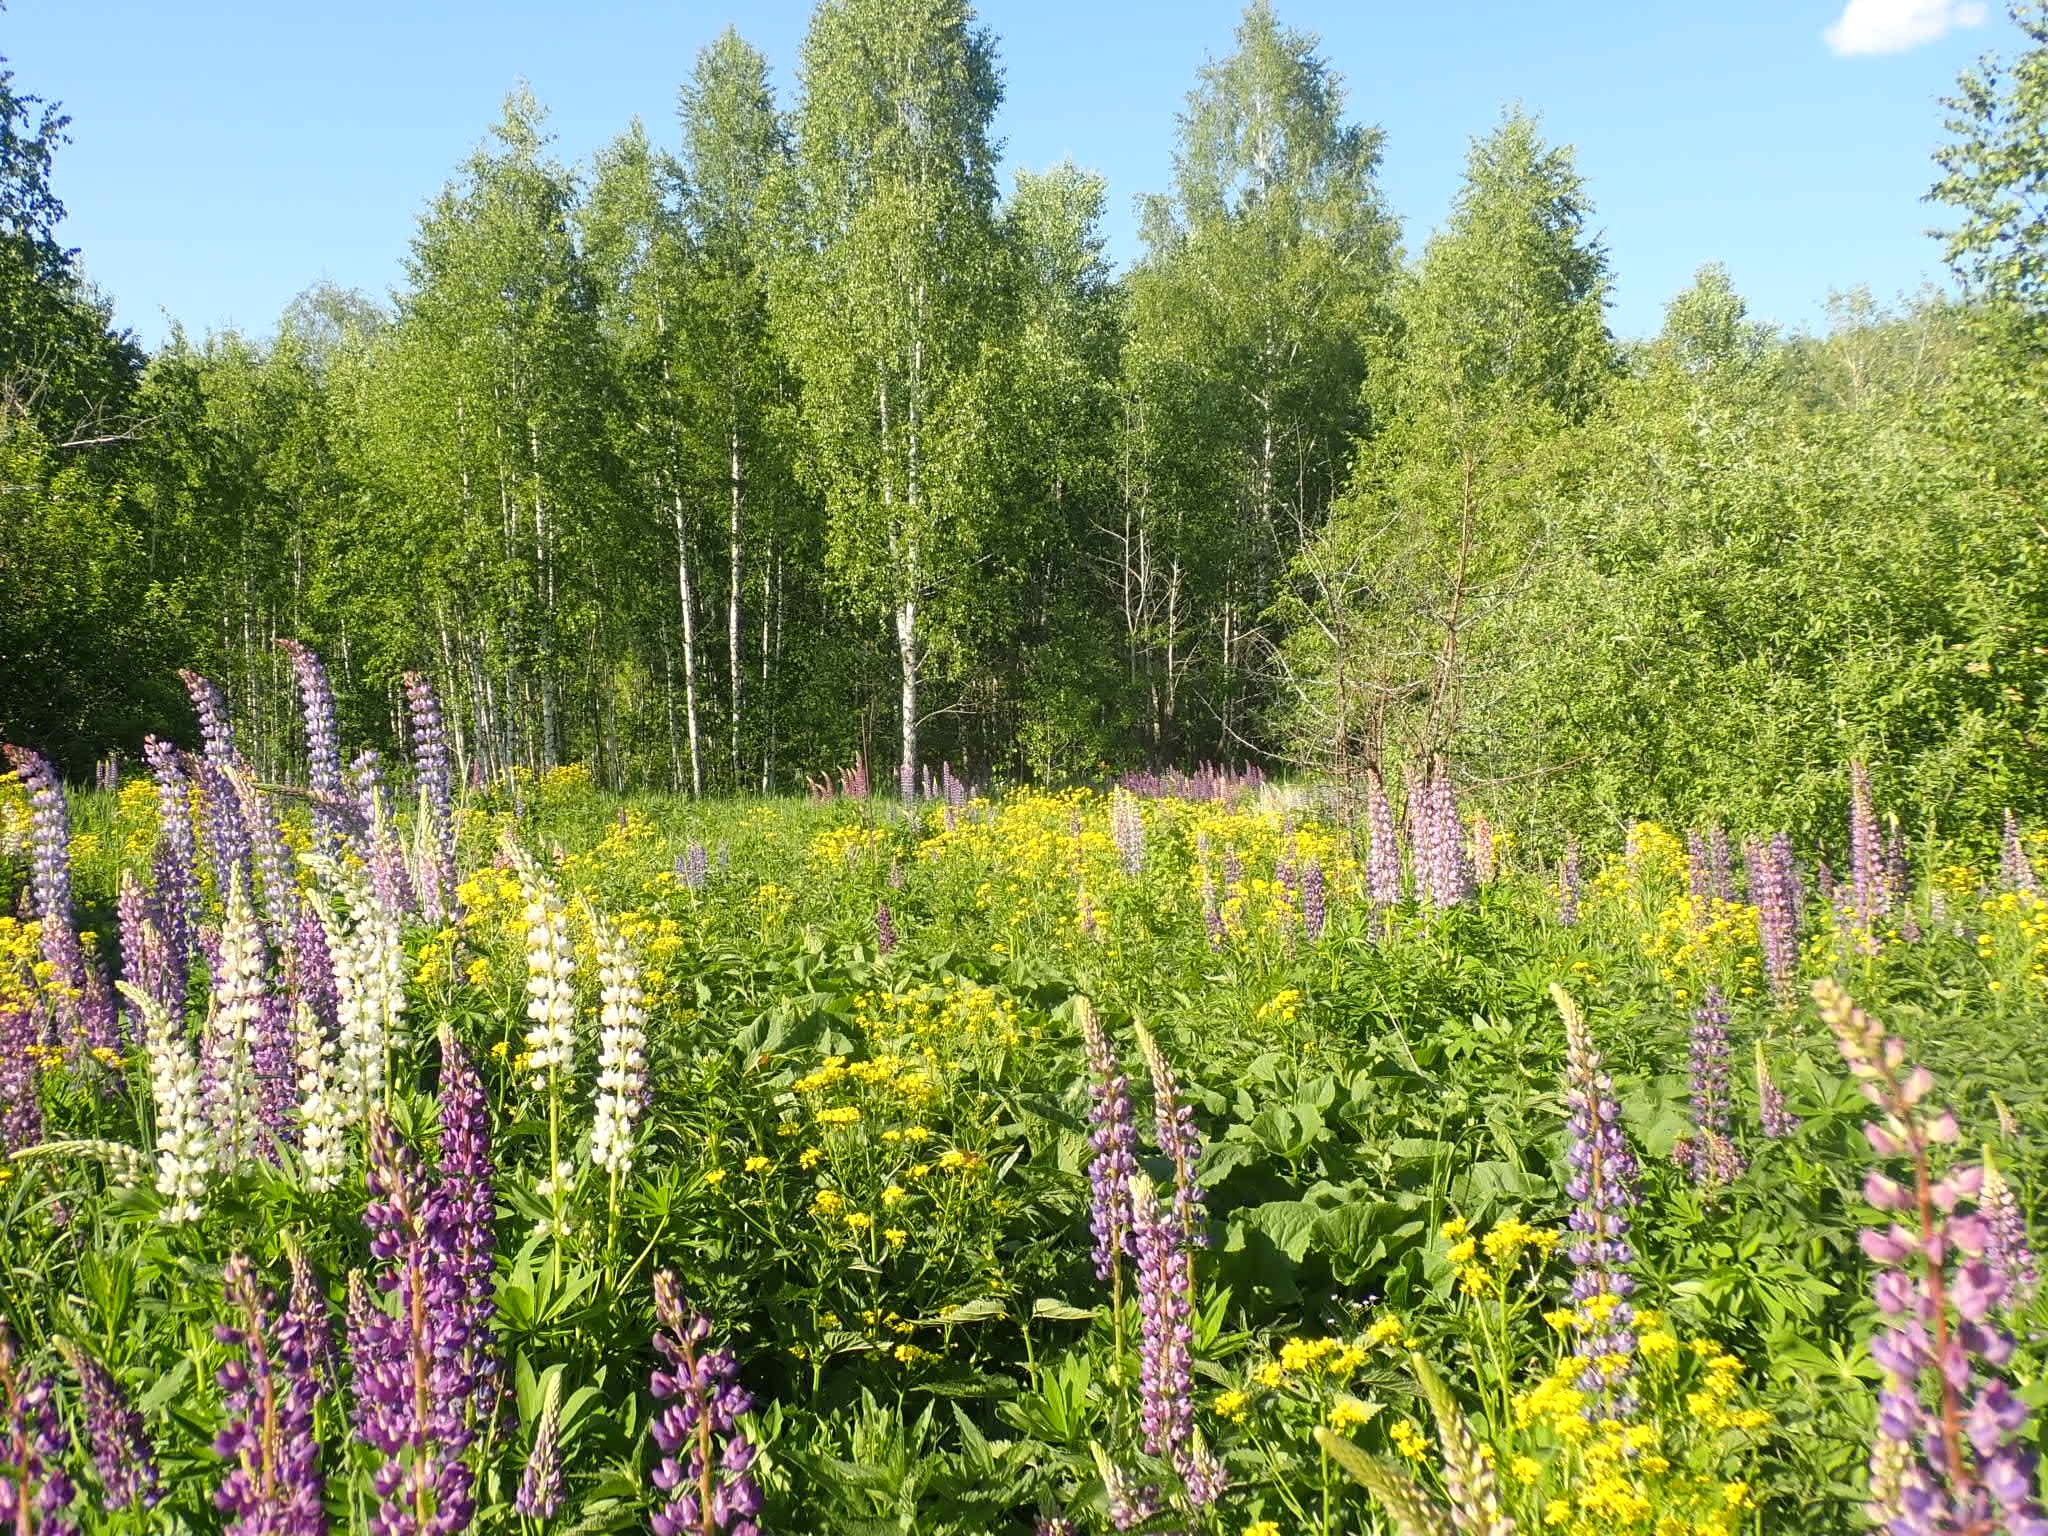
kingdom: Plantae
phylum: Tracheophyta
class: Magnoliopsida
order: Fabales
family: Fabaceae
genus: Lupinus
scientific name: Lupinus polyphyllus
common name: Garden lupin
